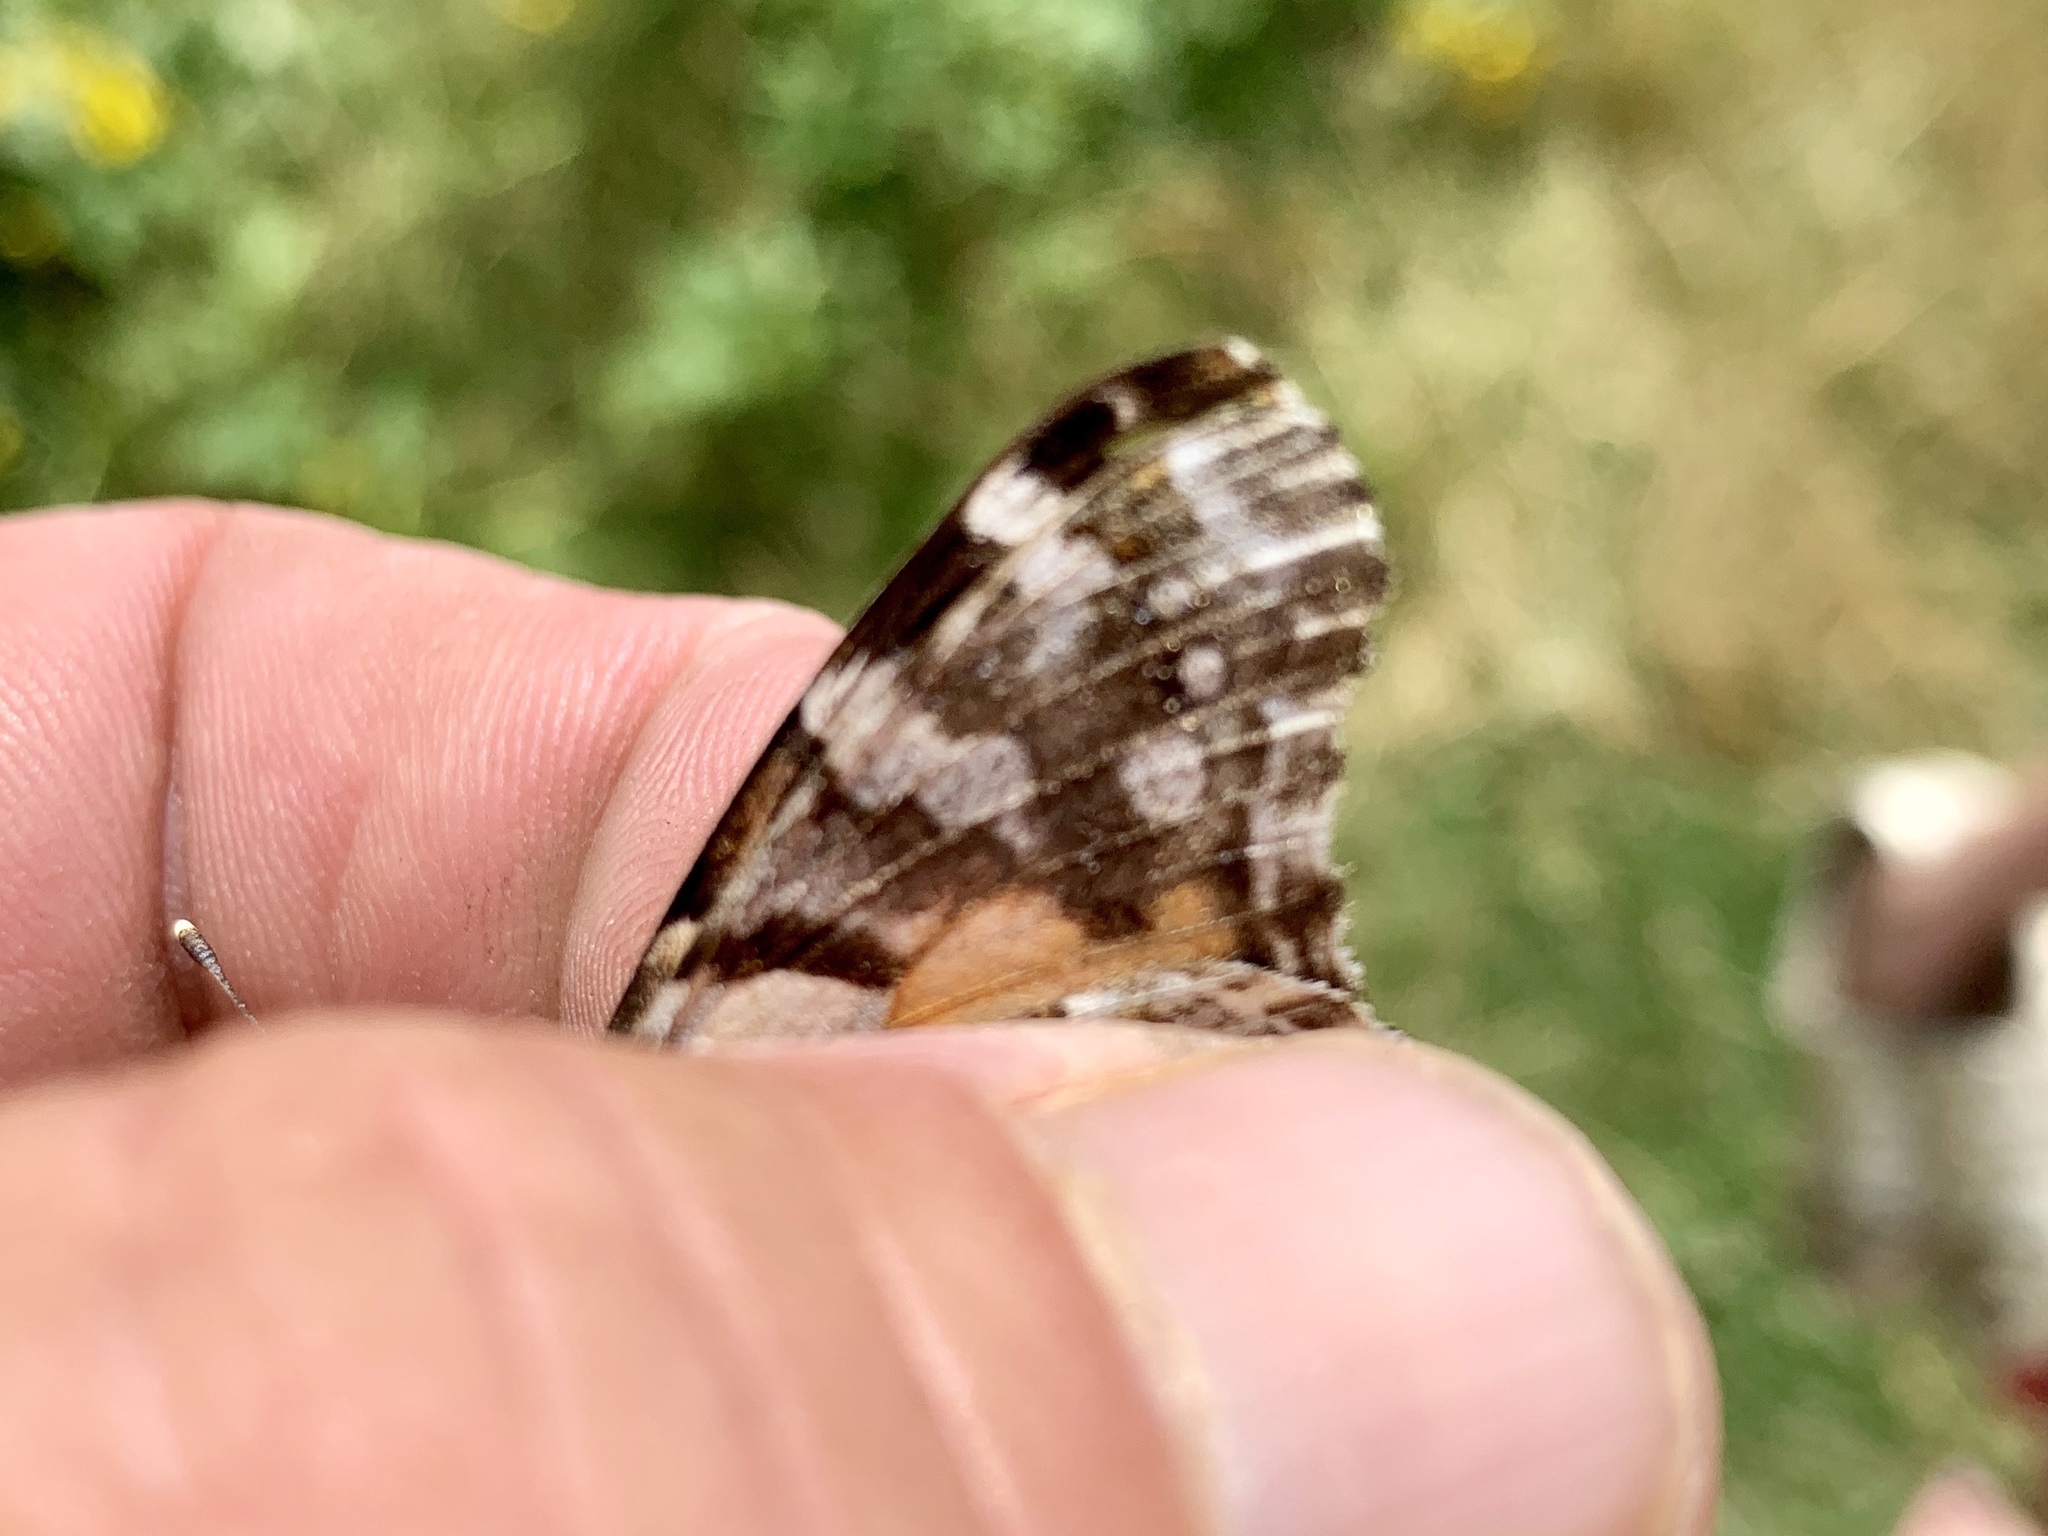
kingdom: Animalia
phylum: Arthropoda
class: Insecta
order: Lepidoptera
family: Nymphalidae
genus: Vanessa
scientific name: Vanessa cardui
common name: Painted lady
